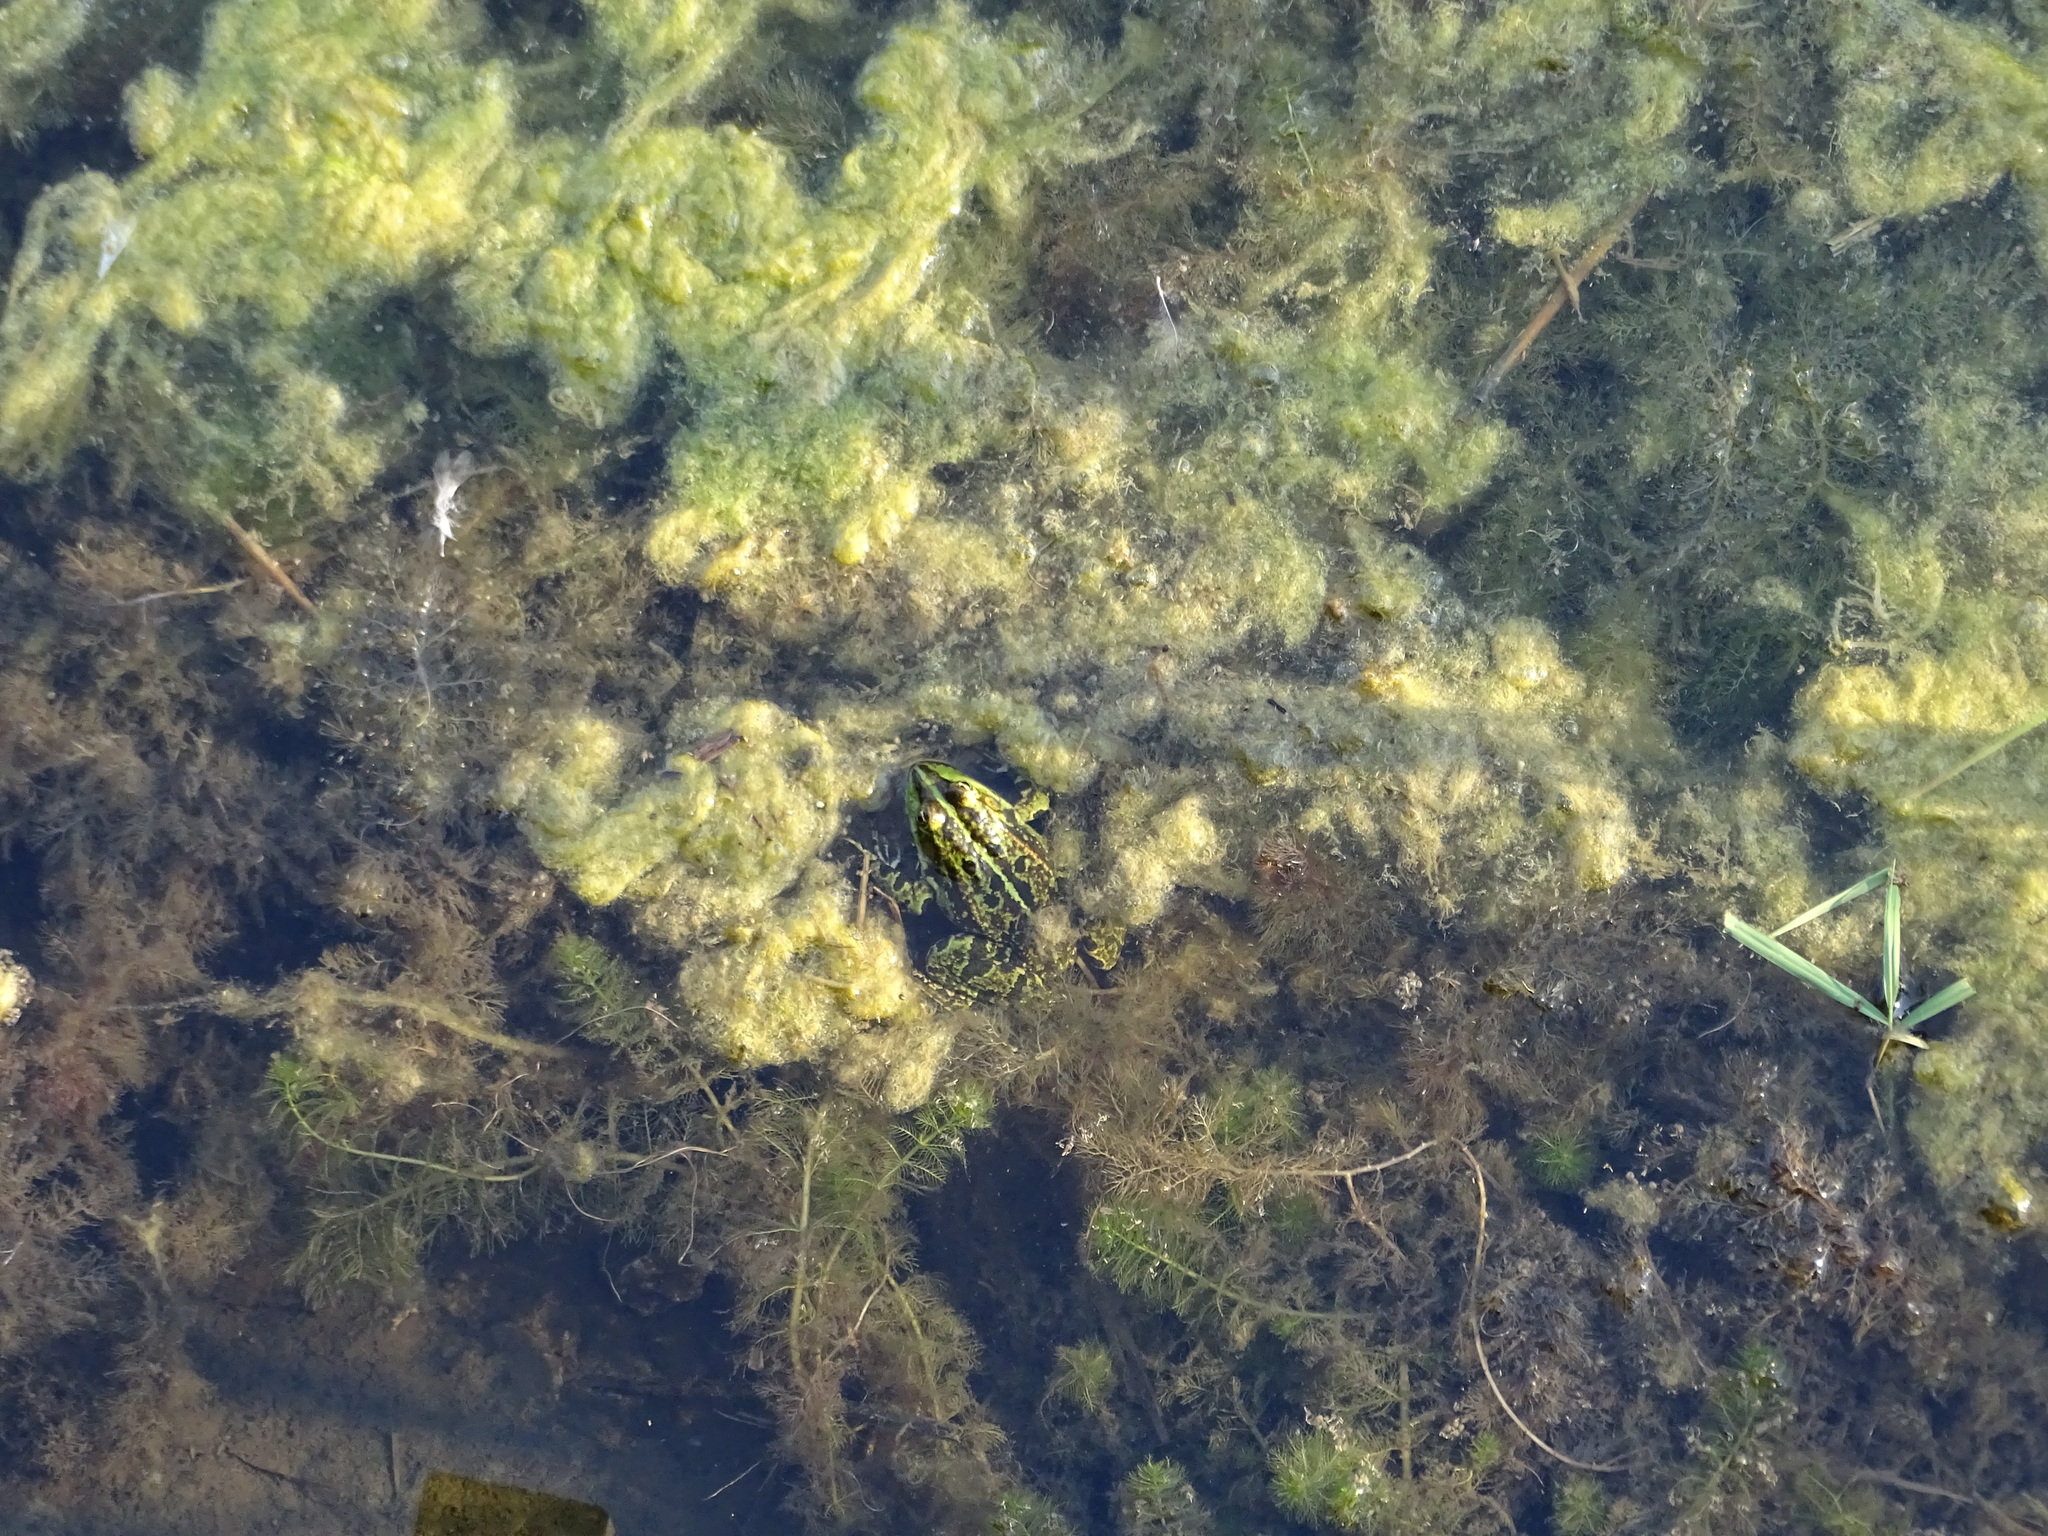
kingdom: Animalia
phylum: Chordata
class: Amphibia
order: Anura
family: Ranidae
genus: Pelophylax
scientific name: Pelophylax
